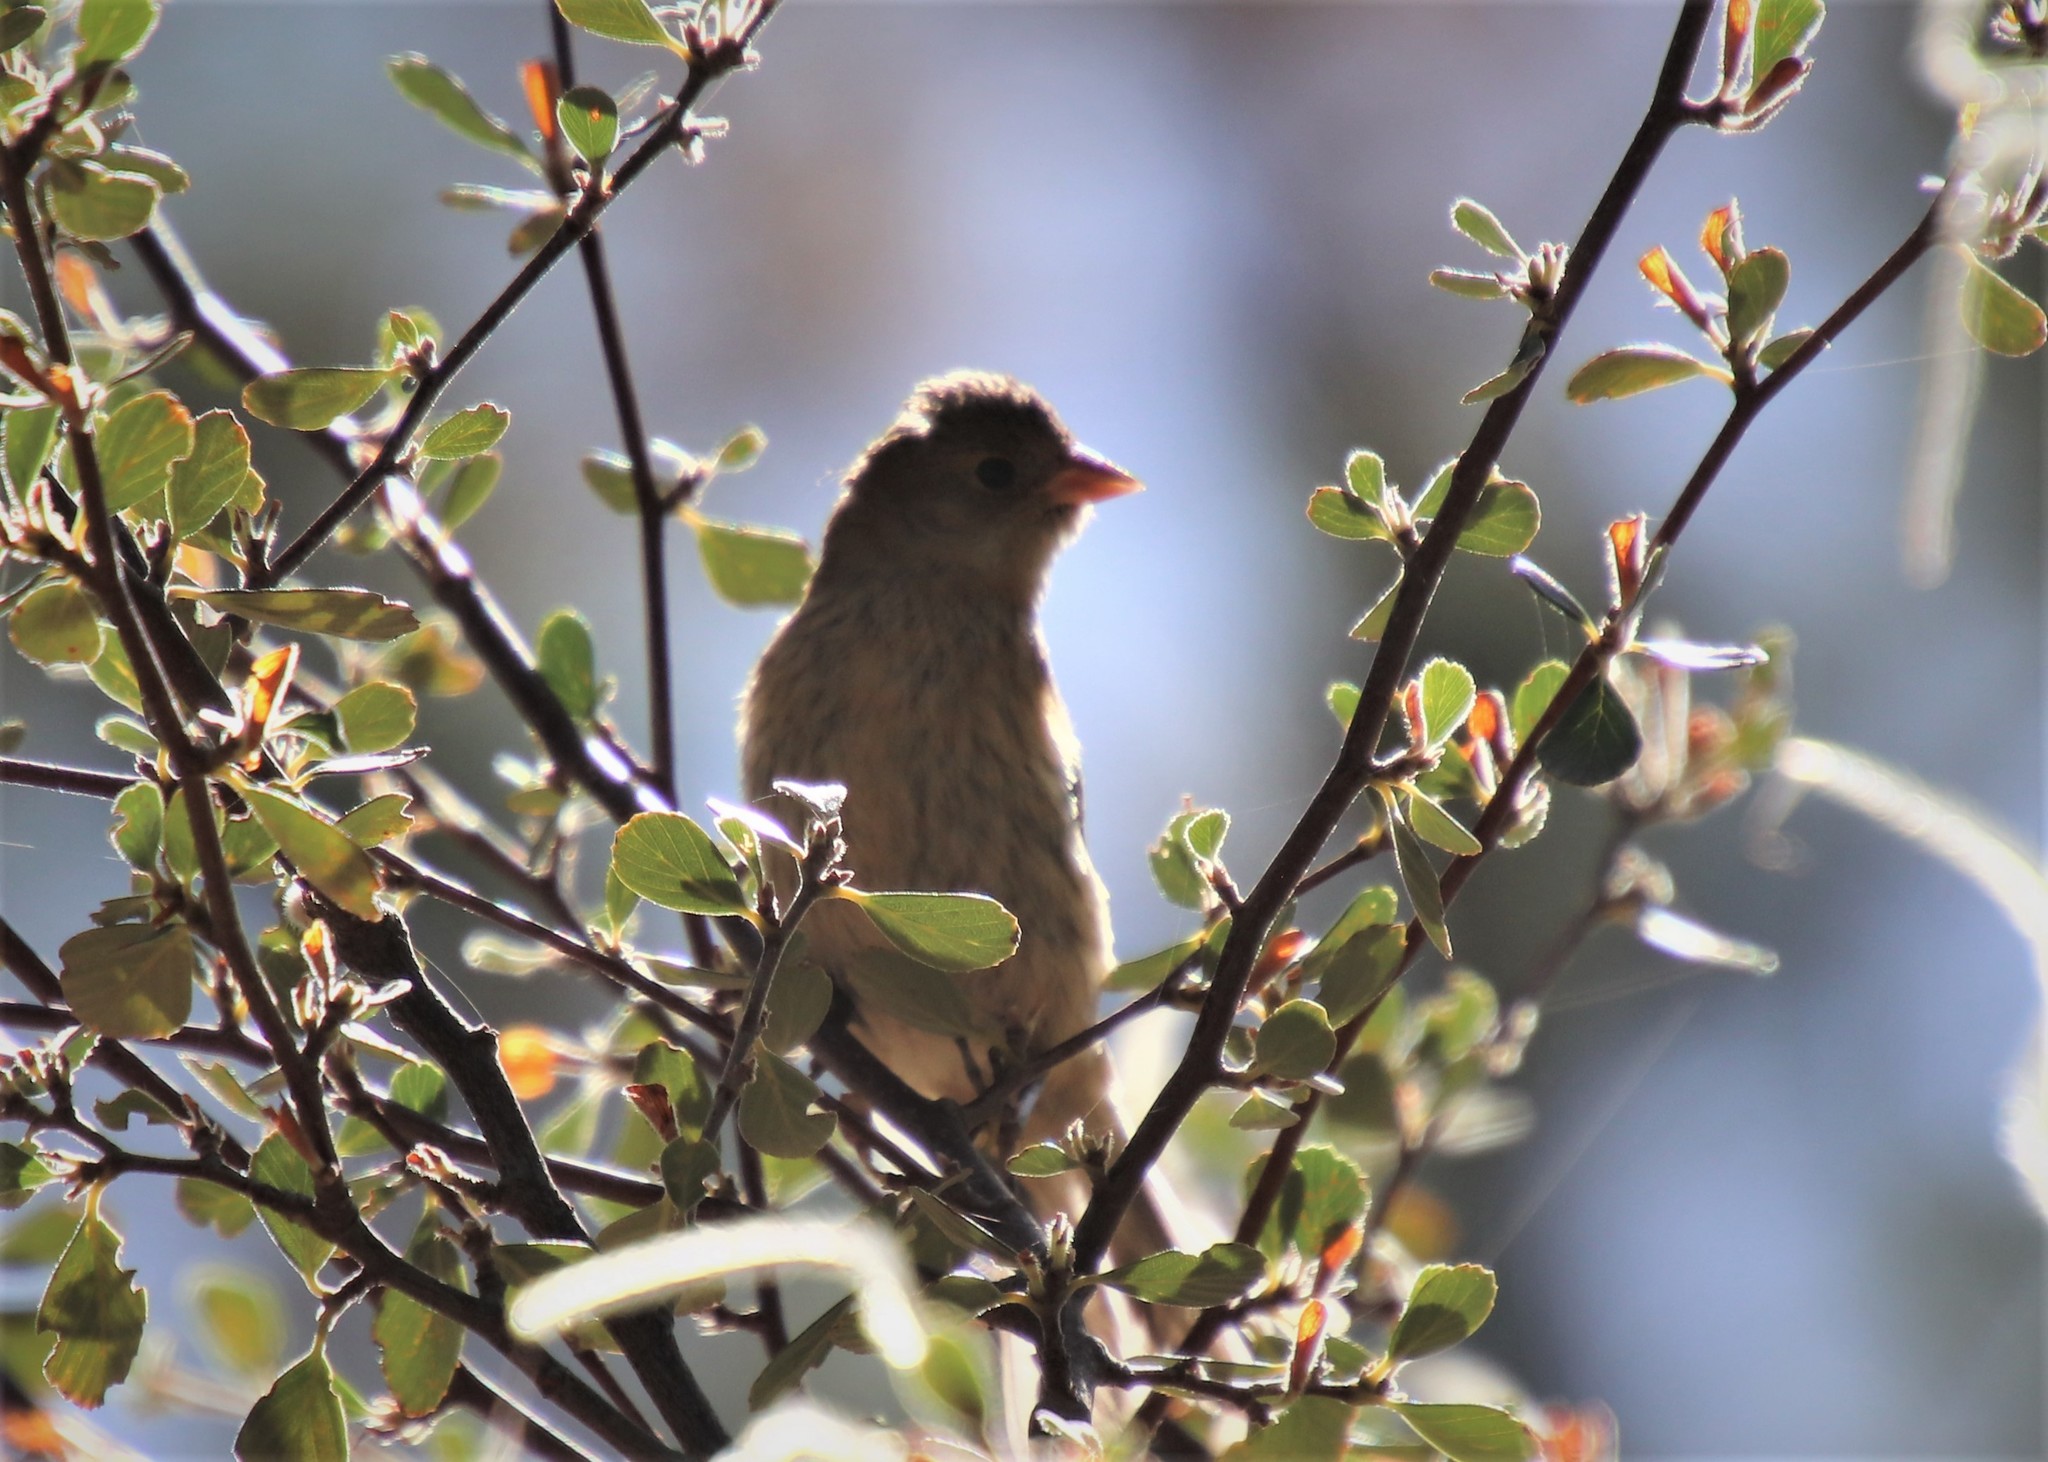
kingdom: Animalia
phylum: Chordata
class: Aves
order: Passeriformes
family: Cardinalidae
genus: Passerina
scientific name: Passerina amoena
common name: Lazuli bunting
